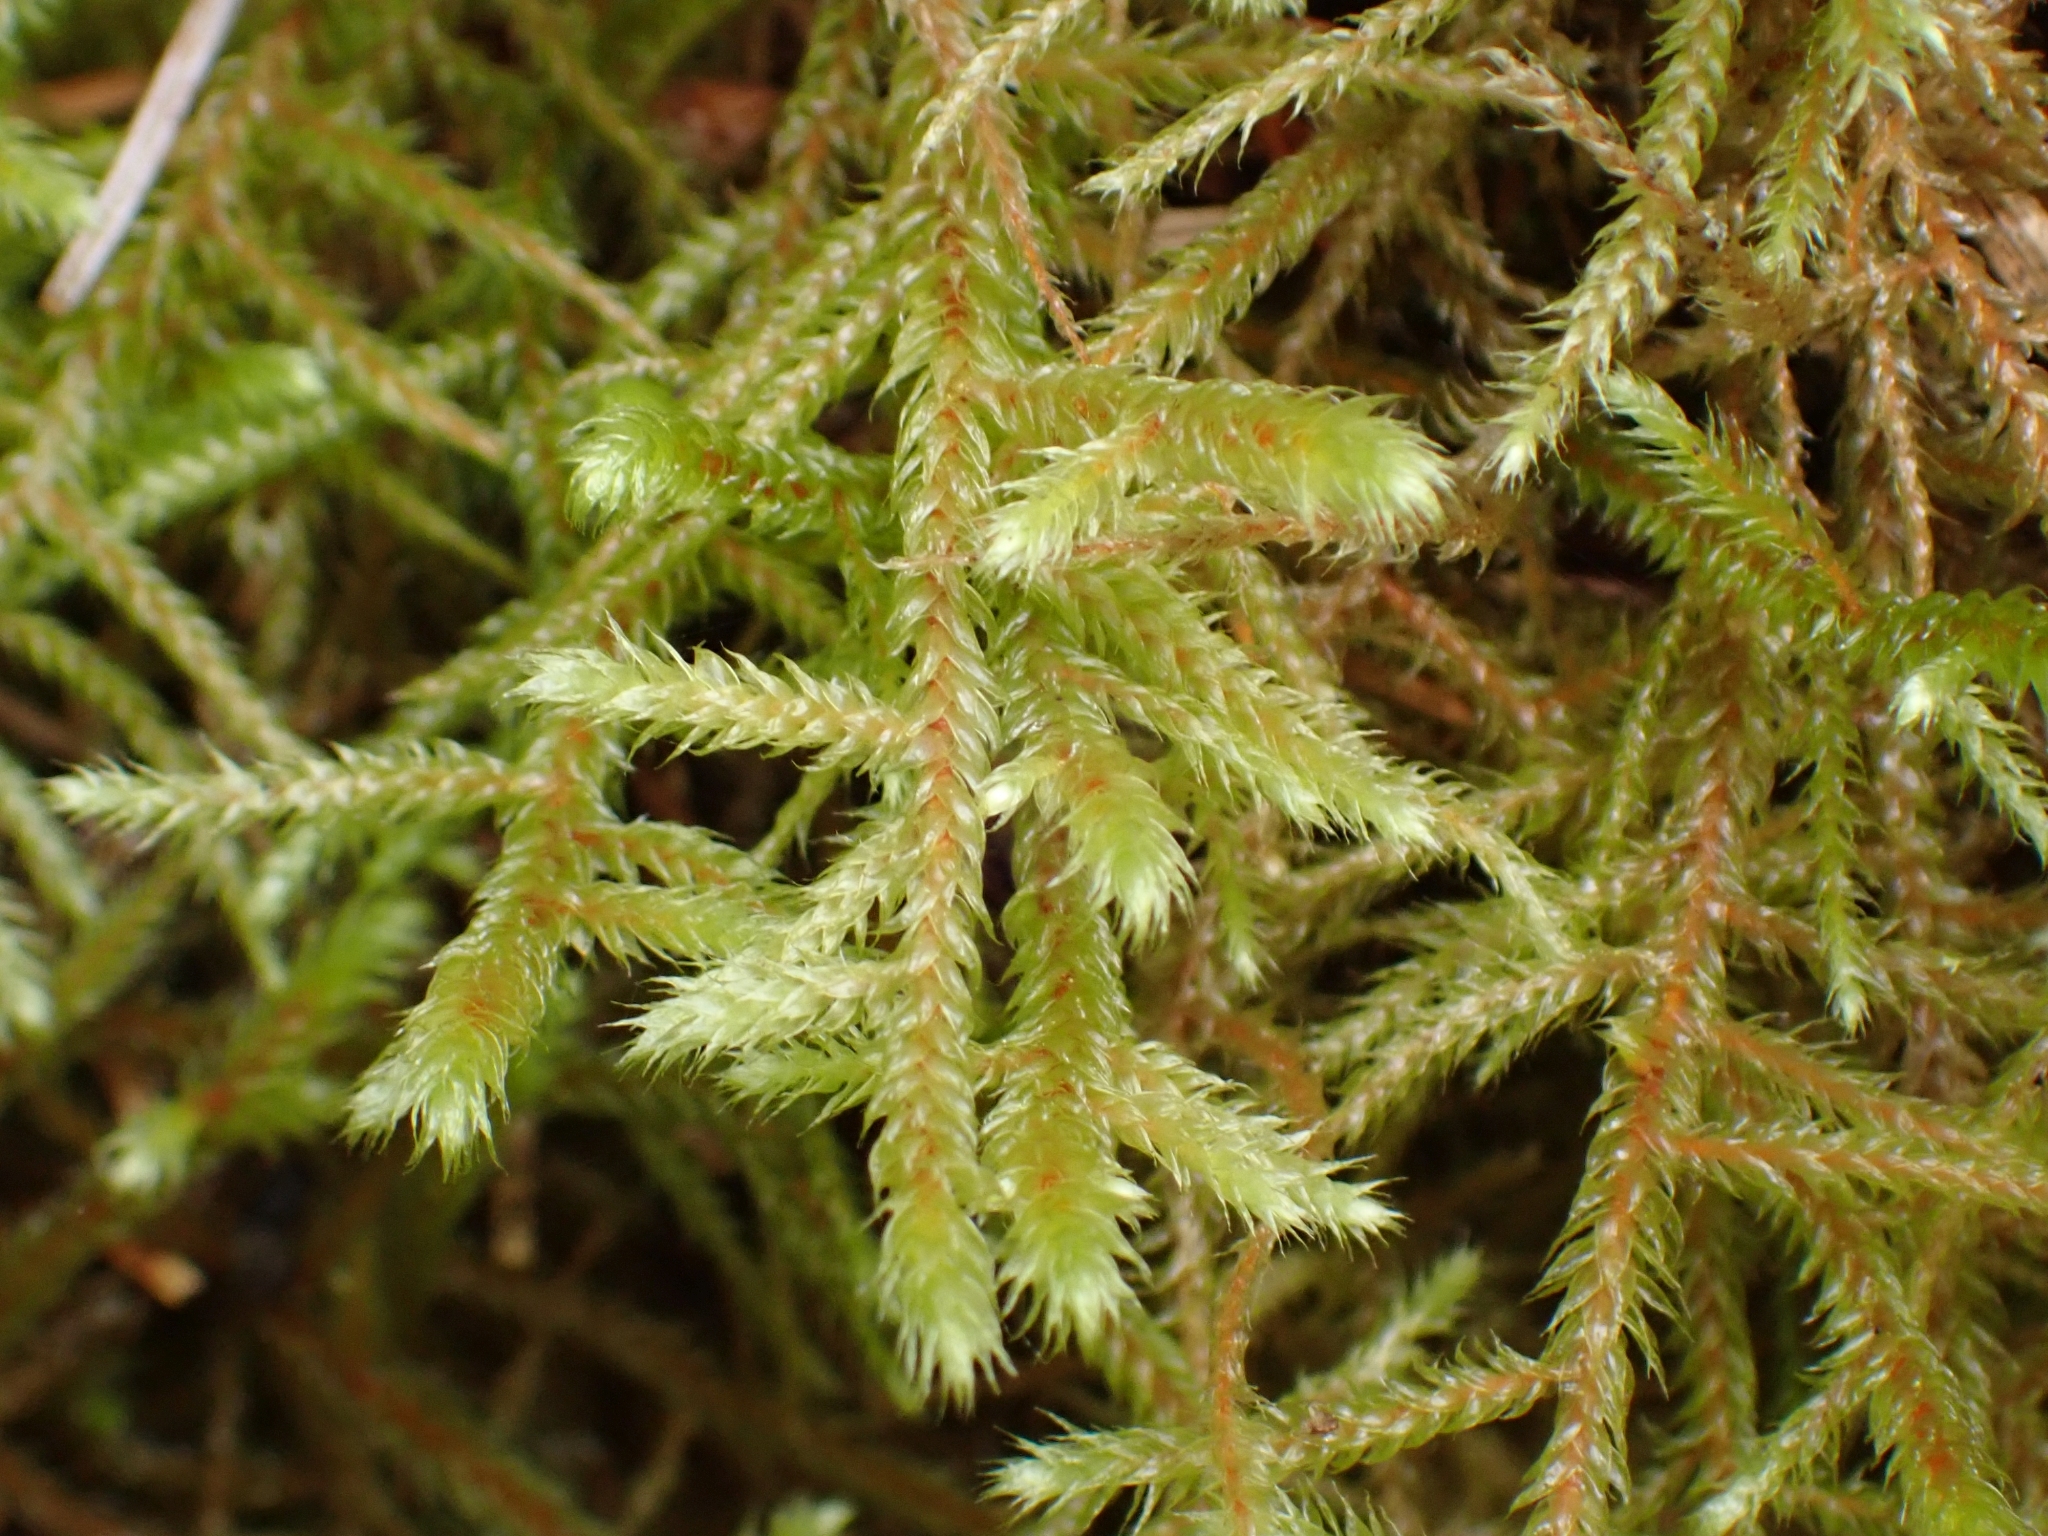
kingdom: Plantae
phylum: Bryophyta
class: Bryopsida
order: Hypnales
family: Antitrichiaceae
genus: Antitrichia
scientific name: Antitrichia curtipendula
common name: Pendulous wing-moss
